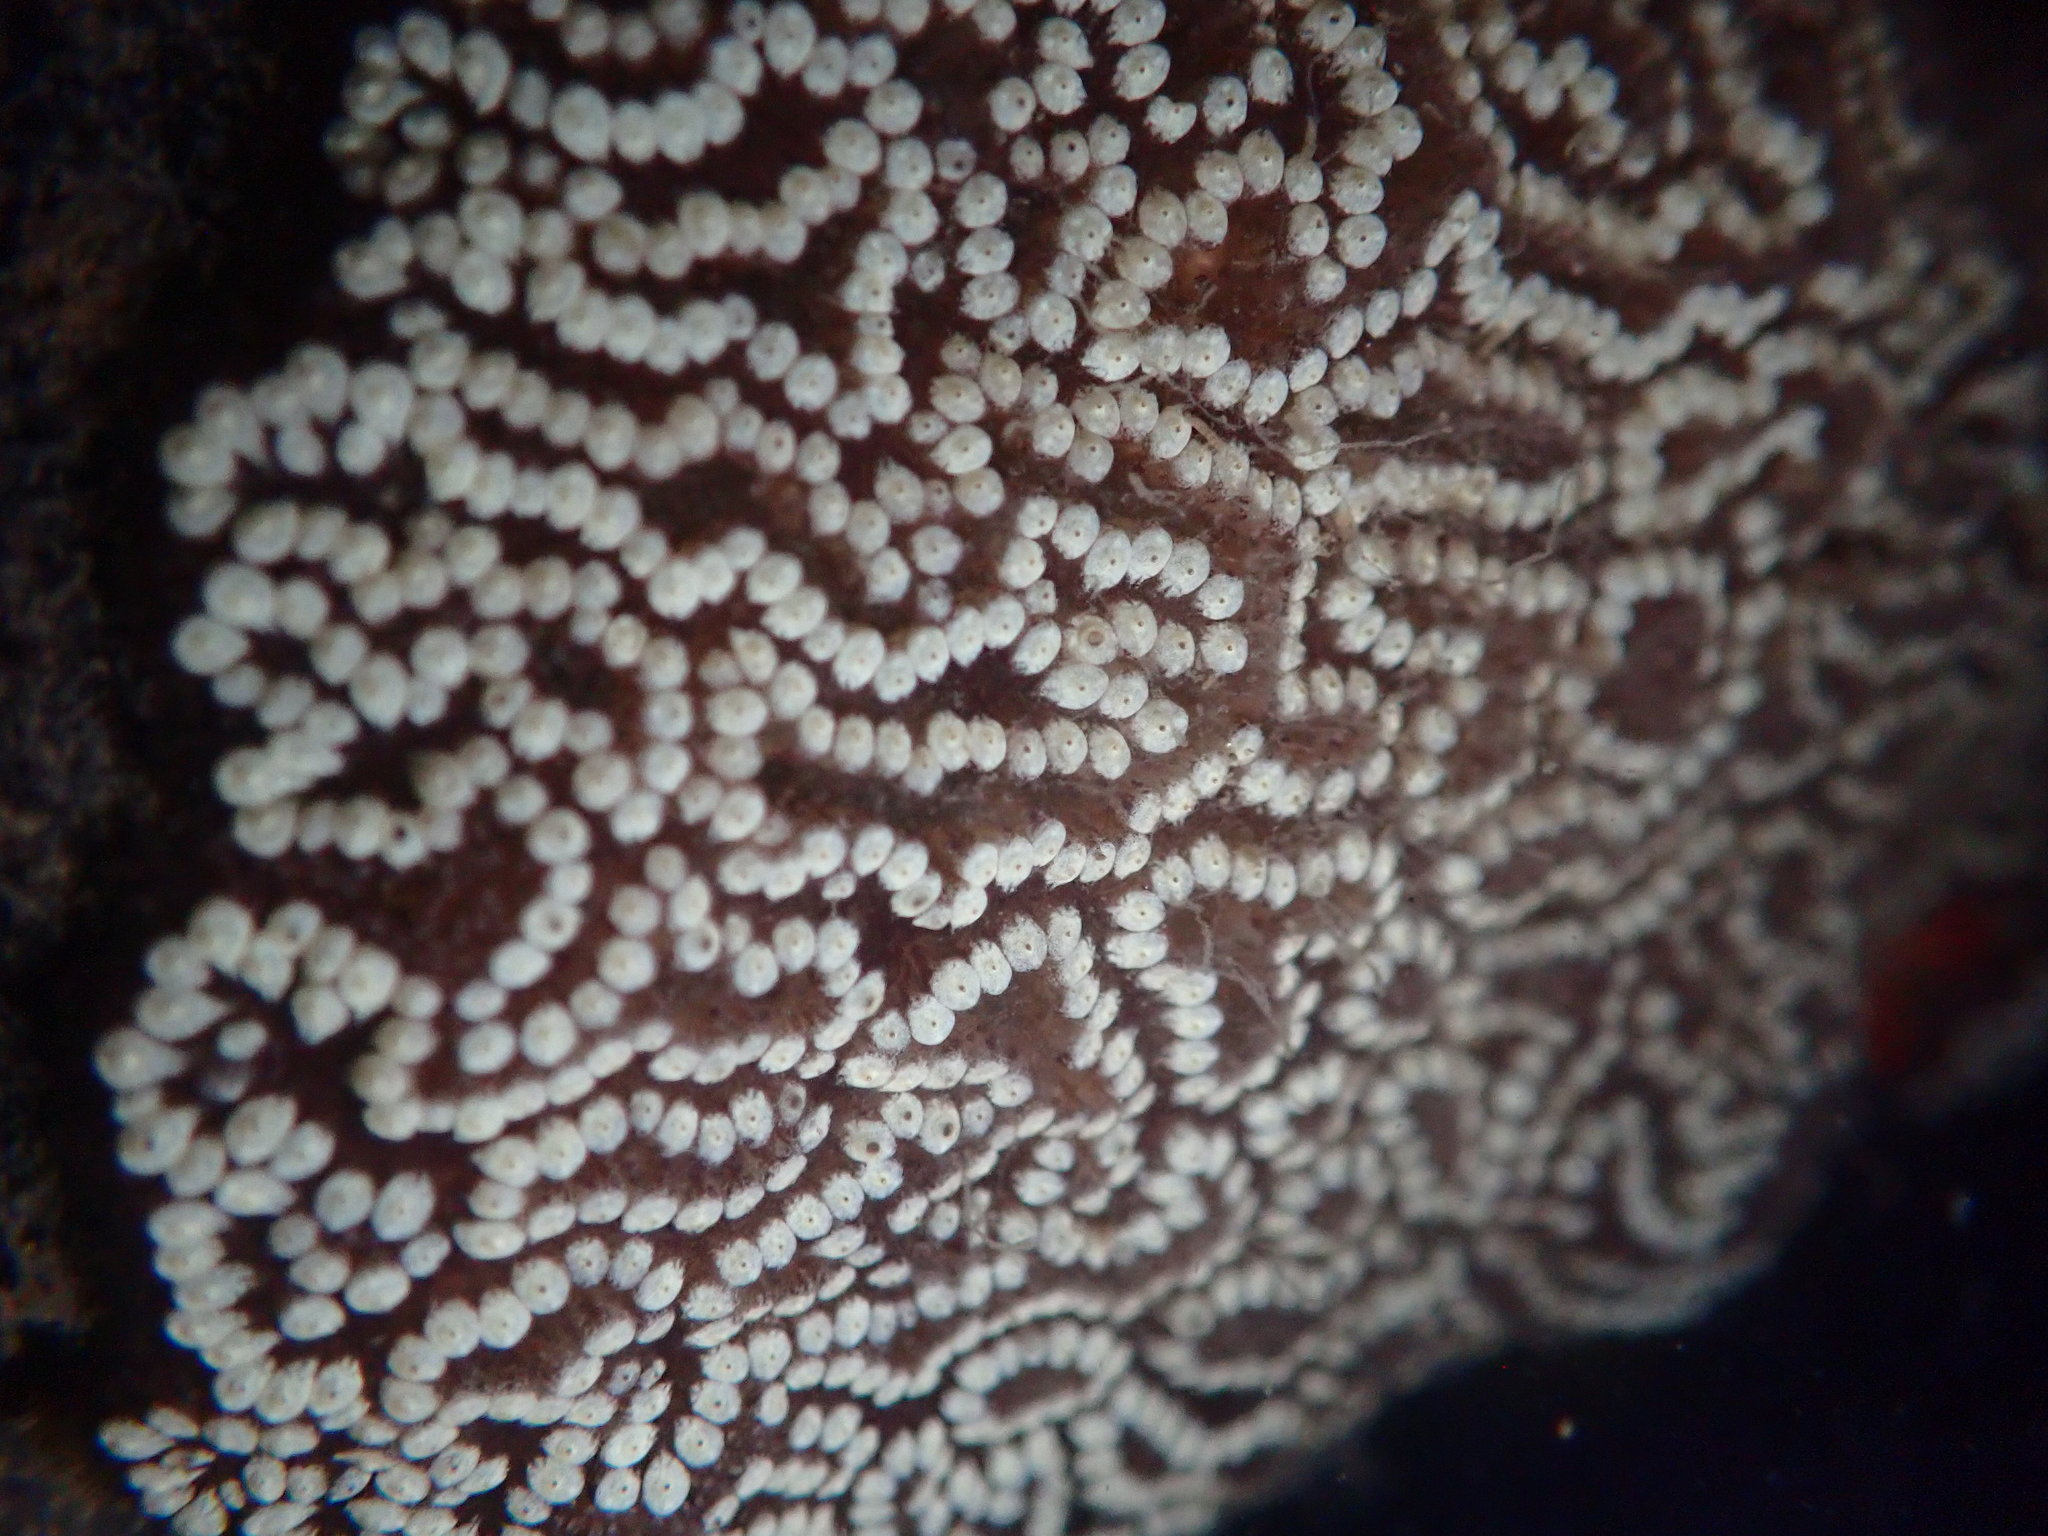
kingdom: Animalia
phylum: Chordata
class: Ascidiacea
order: Stolidobranchia
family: Styelidae
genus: Botrylloides
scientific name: Botrylloides diegensis
